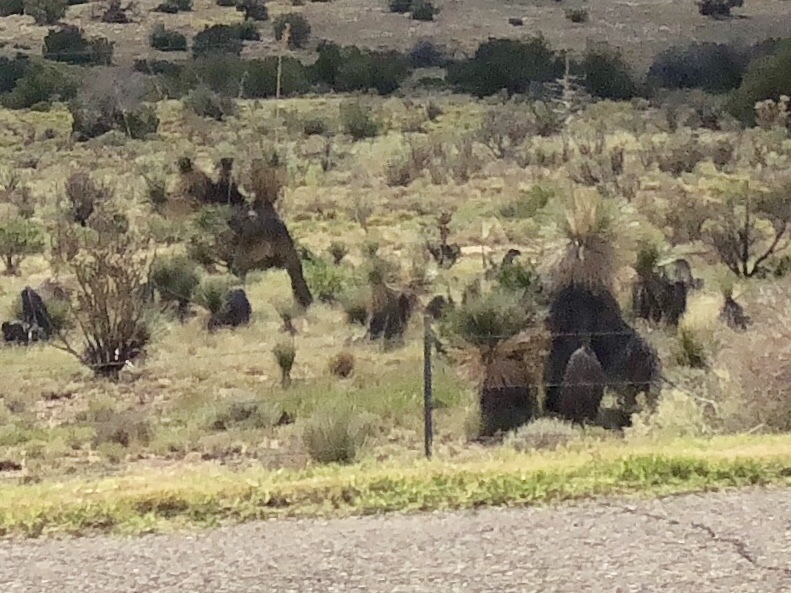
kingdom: Plantae
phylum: Tracheophyta
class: Liliopsida
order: Asparagales
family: Asparagaceae
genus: Yucca
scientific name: Yucca elata
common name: Palmella
